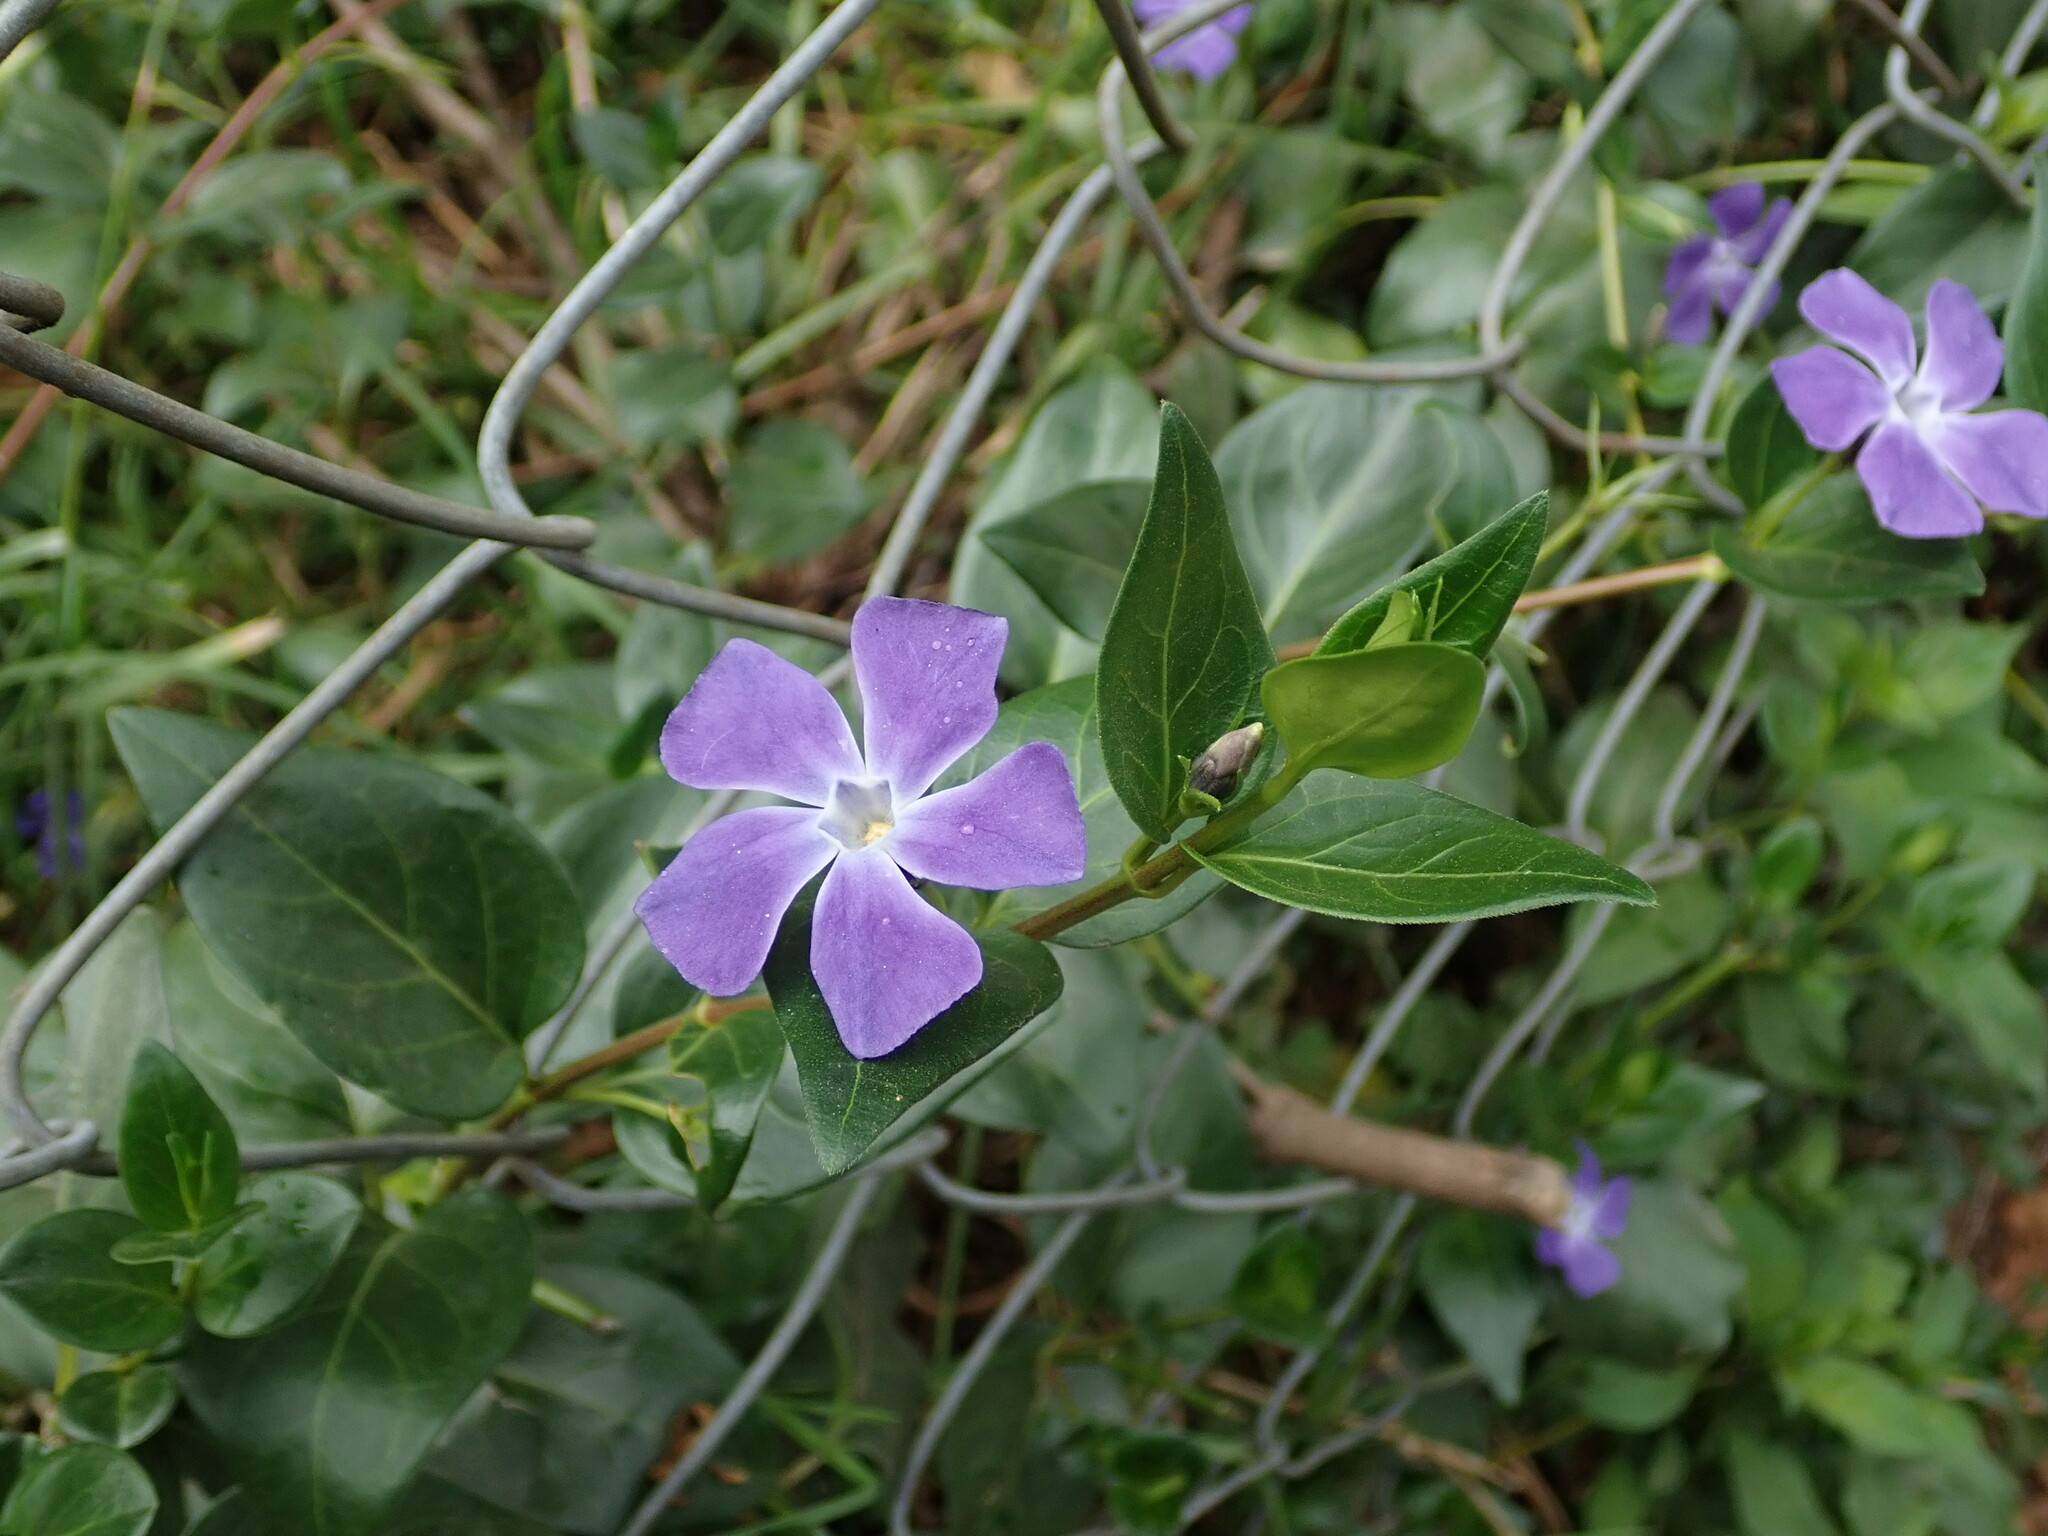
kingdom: Plantae
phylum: Tracheophyta
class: Magnoliopsida
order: Gentianales
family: Apocynaceae
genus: Vinca
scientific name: Vinca major
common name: Greater periwinkle
